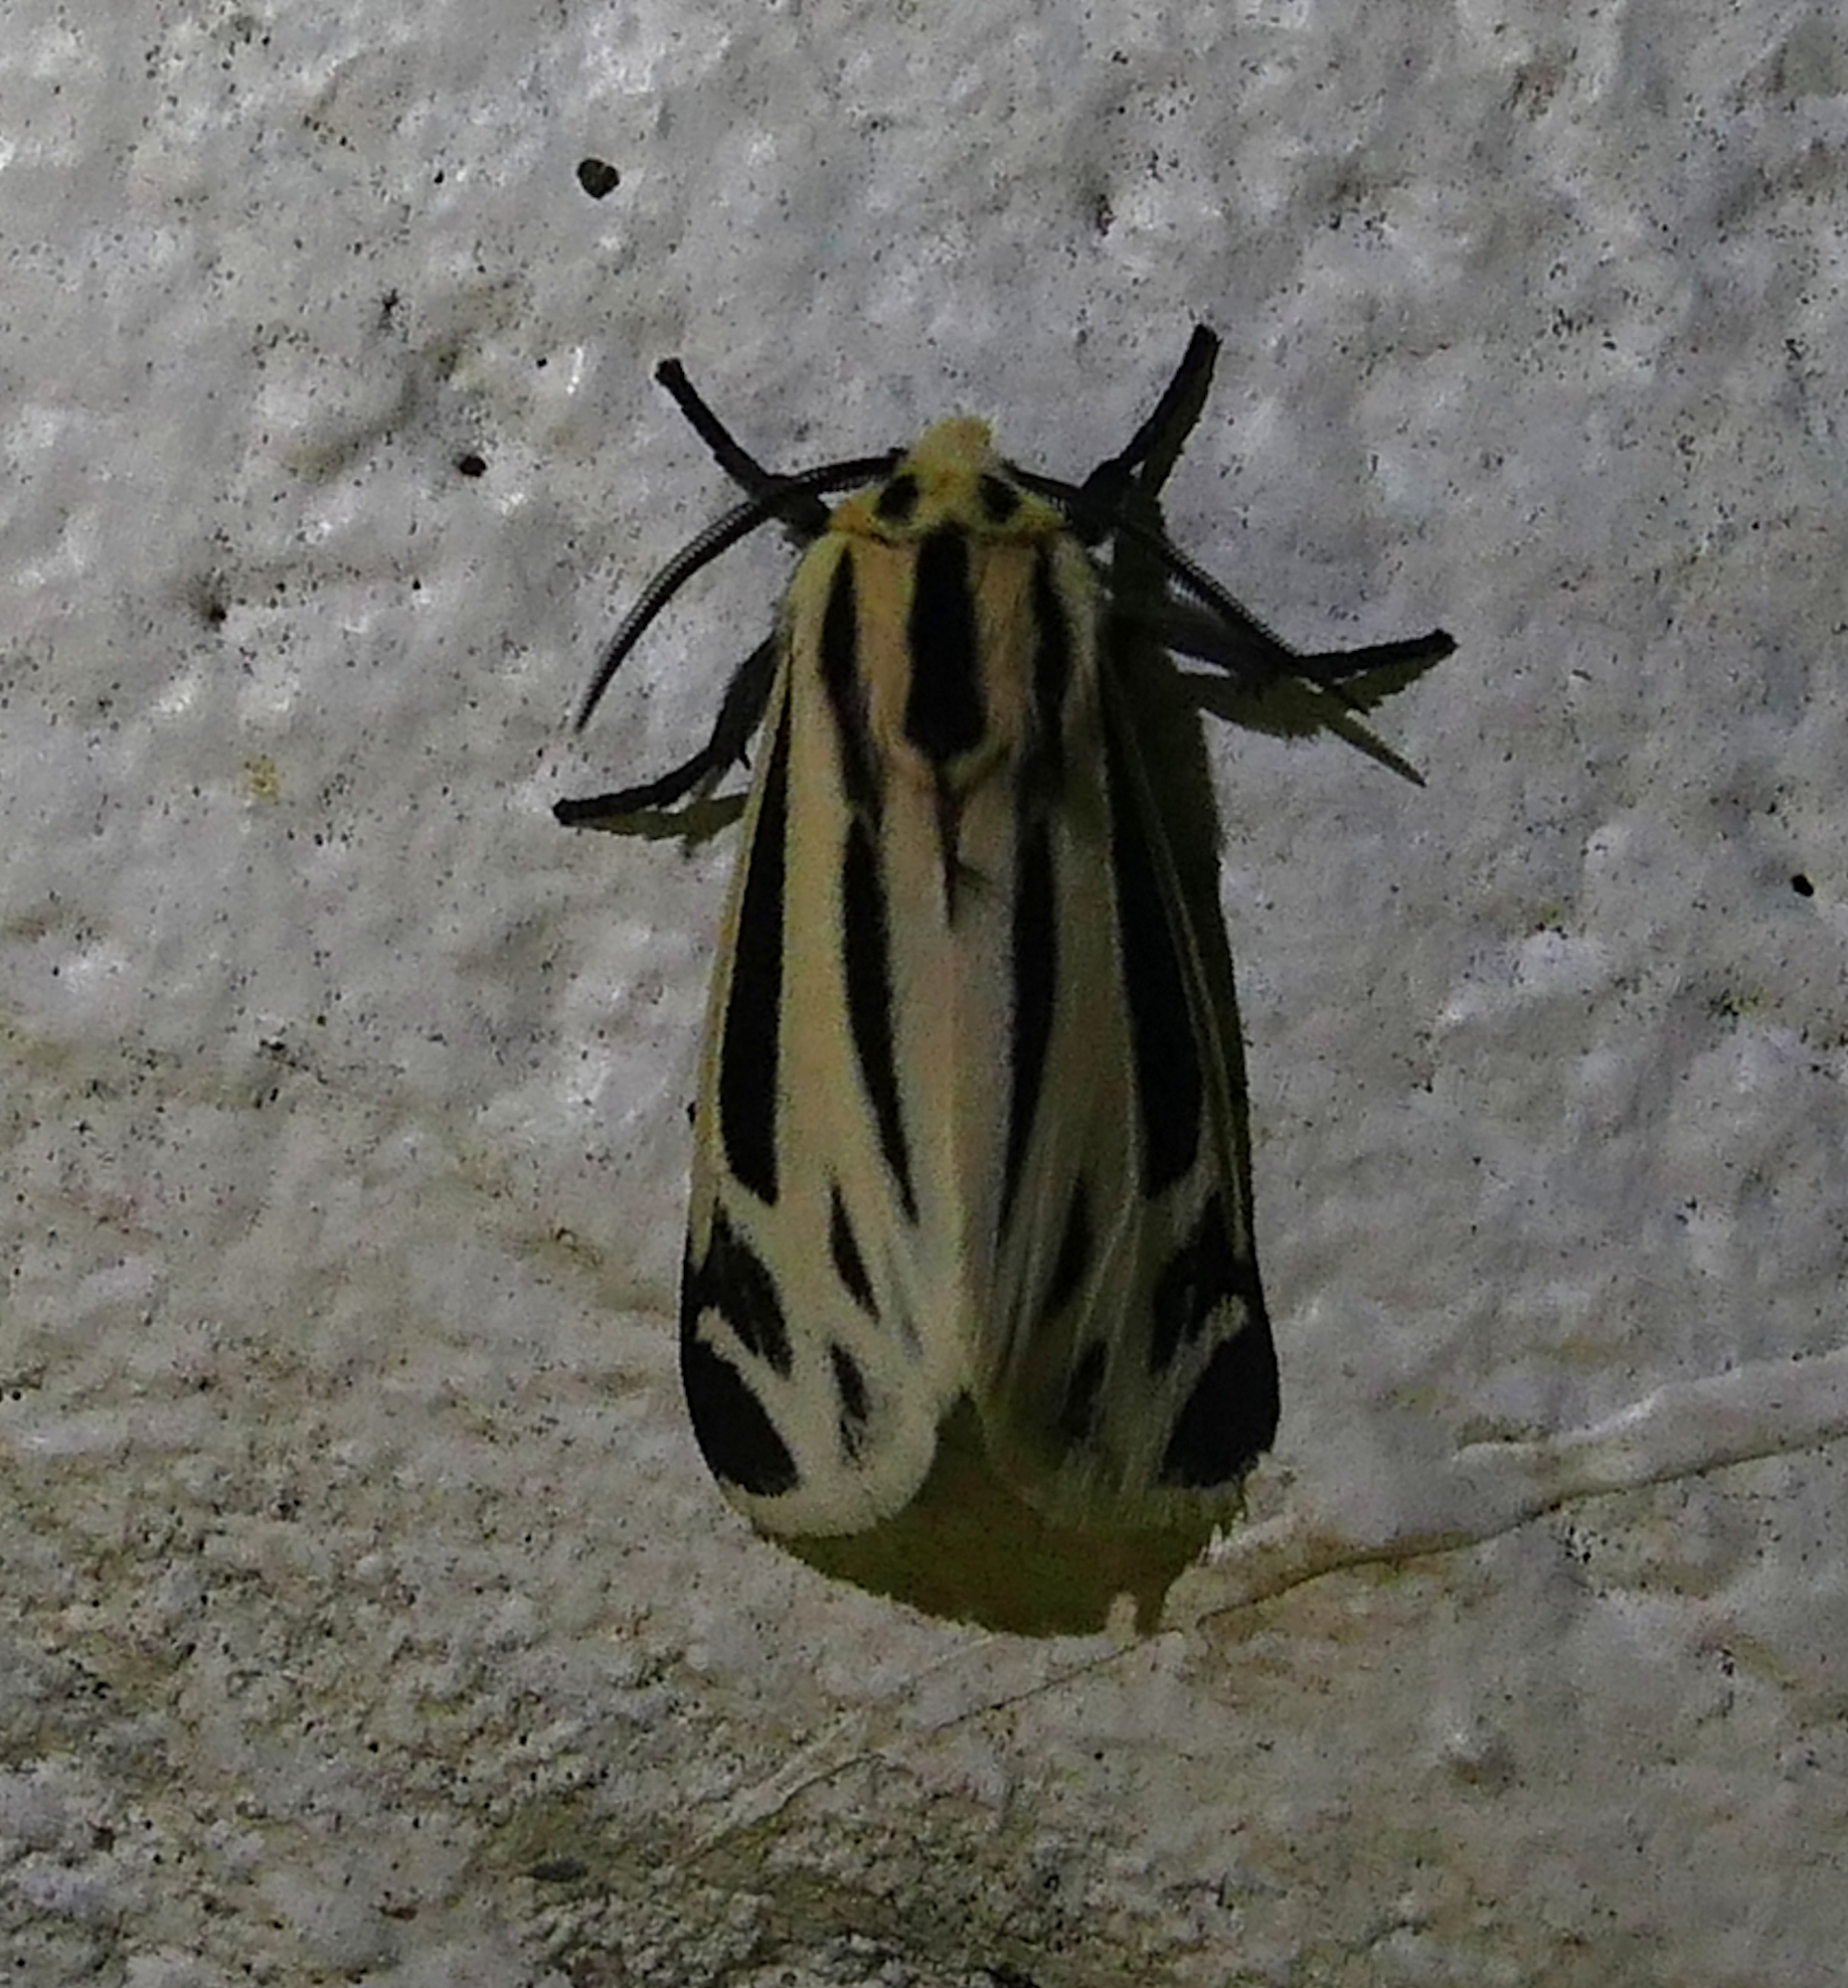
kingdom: Animalia
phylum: Arthropoda
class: Insecta
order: Lepidoptera
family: Erebidae
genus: Apantesis
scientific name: Apantesis phalerata
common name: Harnessed tiger moth
